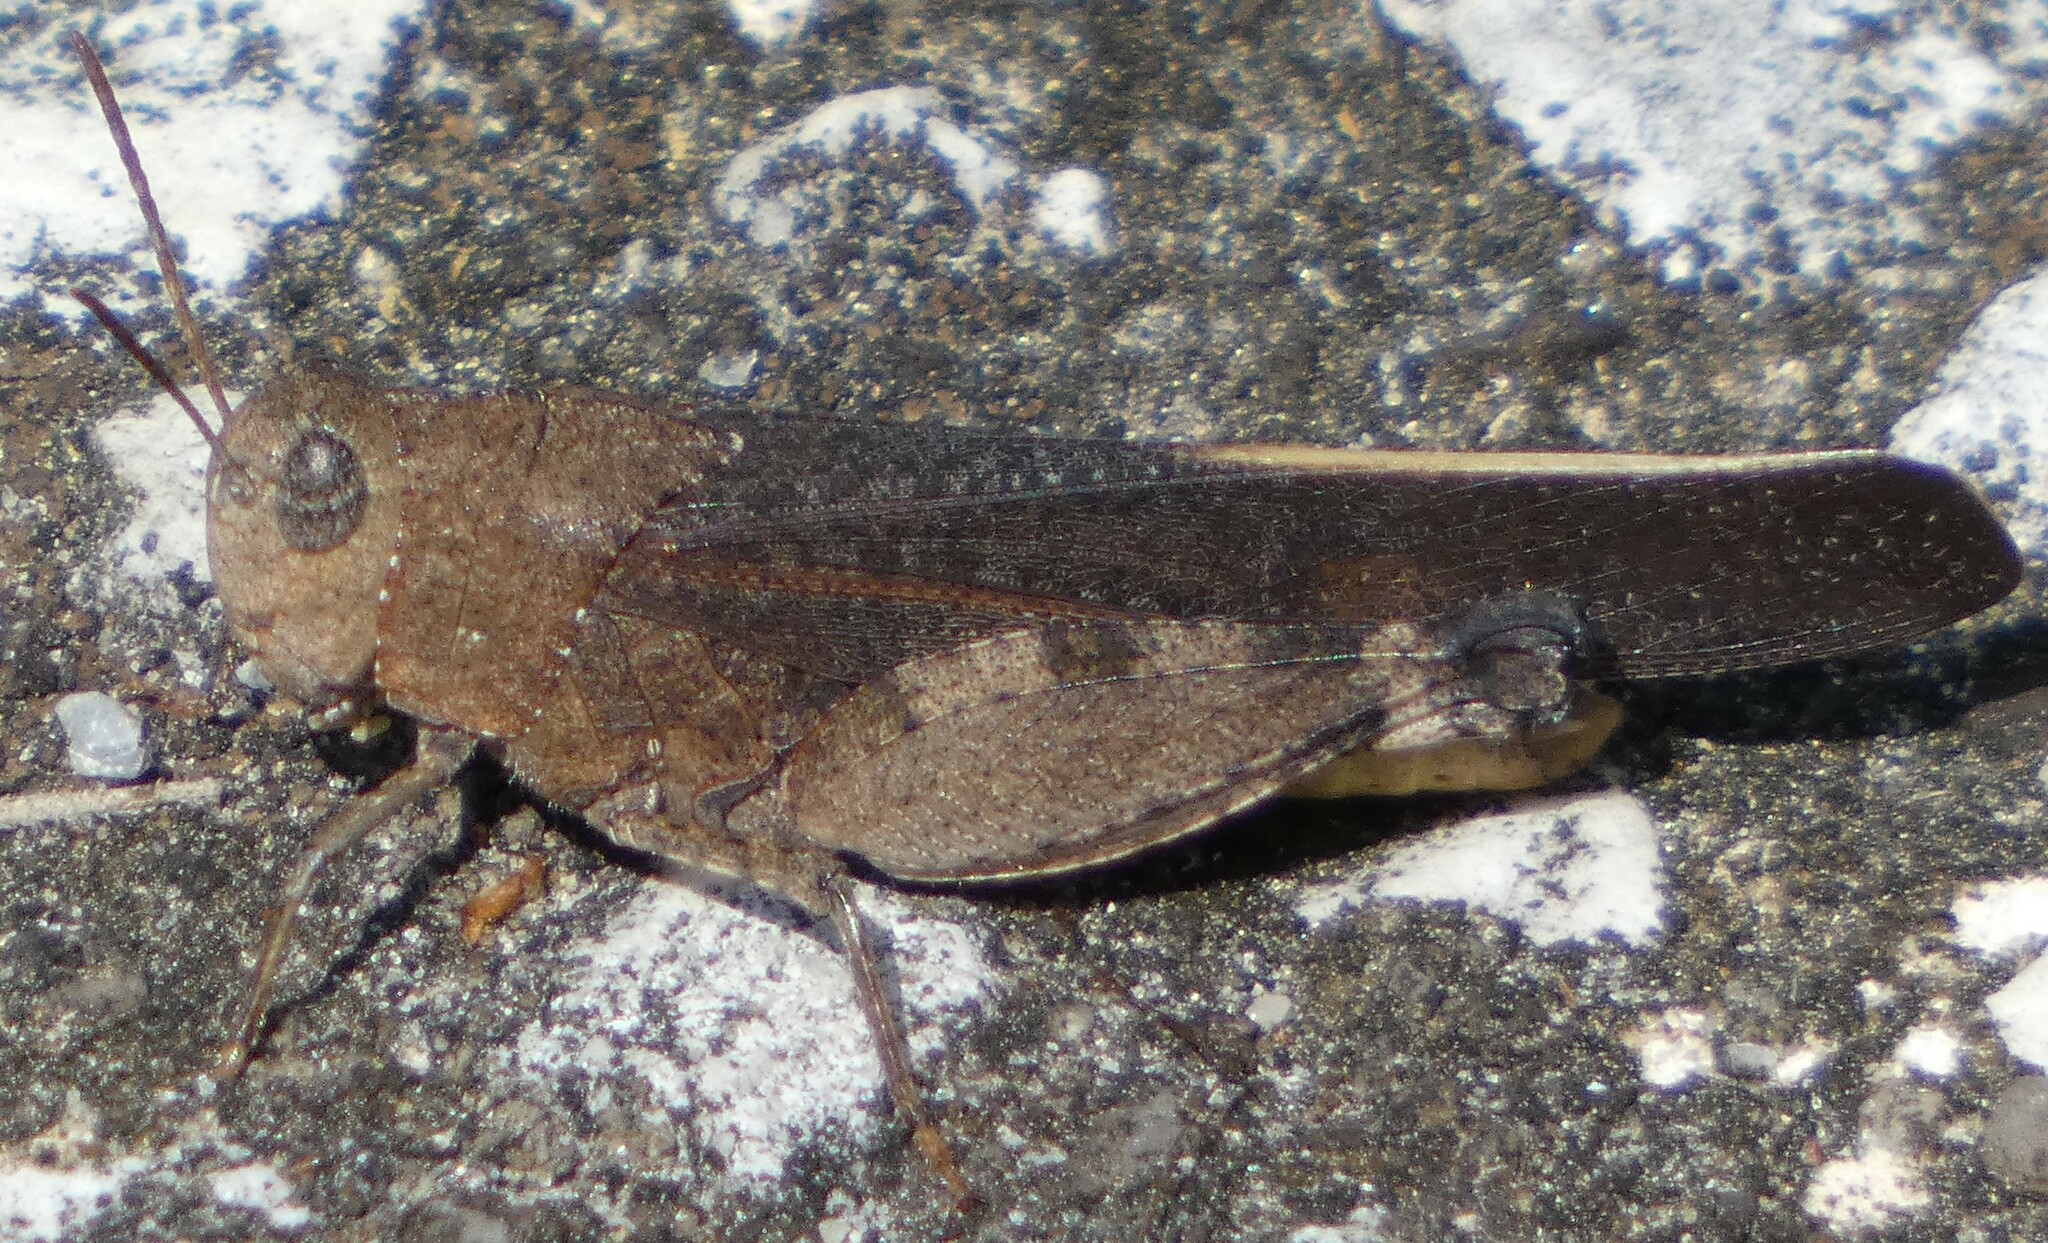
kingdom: Animalia
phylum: Arthropoda
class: Insecta
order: Orthoptera
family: Acrididae
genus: Arphia
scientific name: Arphia granulata
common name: Southern yellow-winged grasshopper
